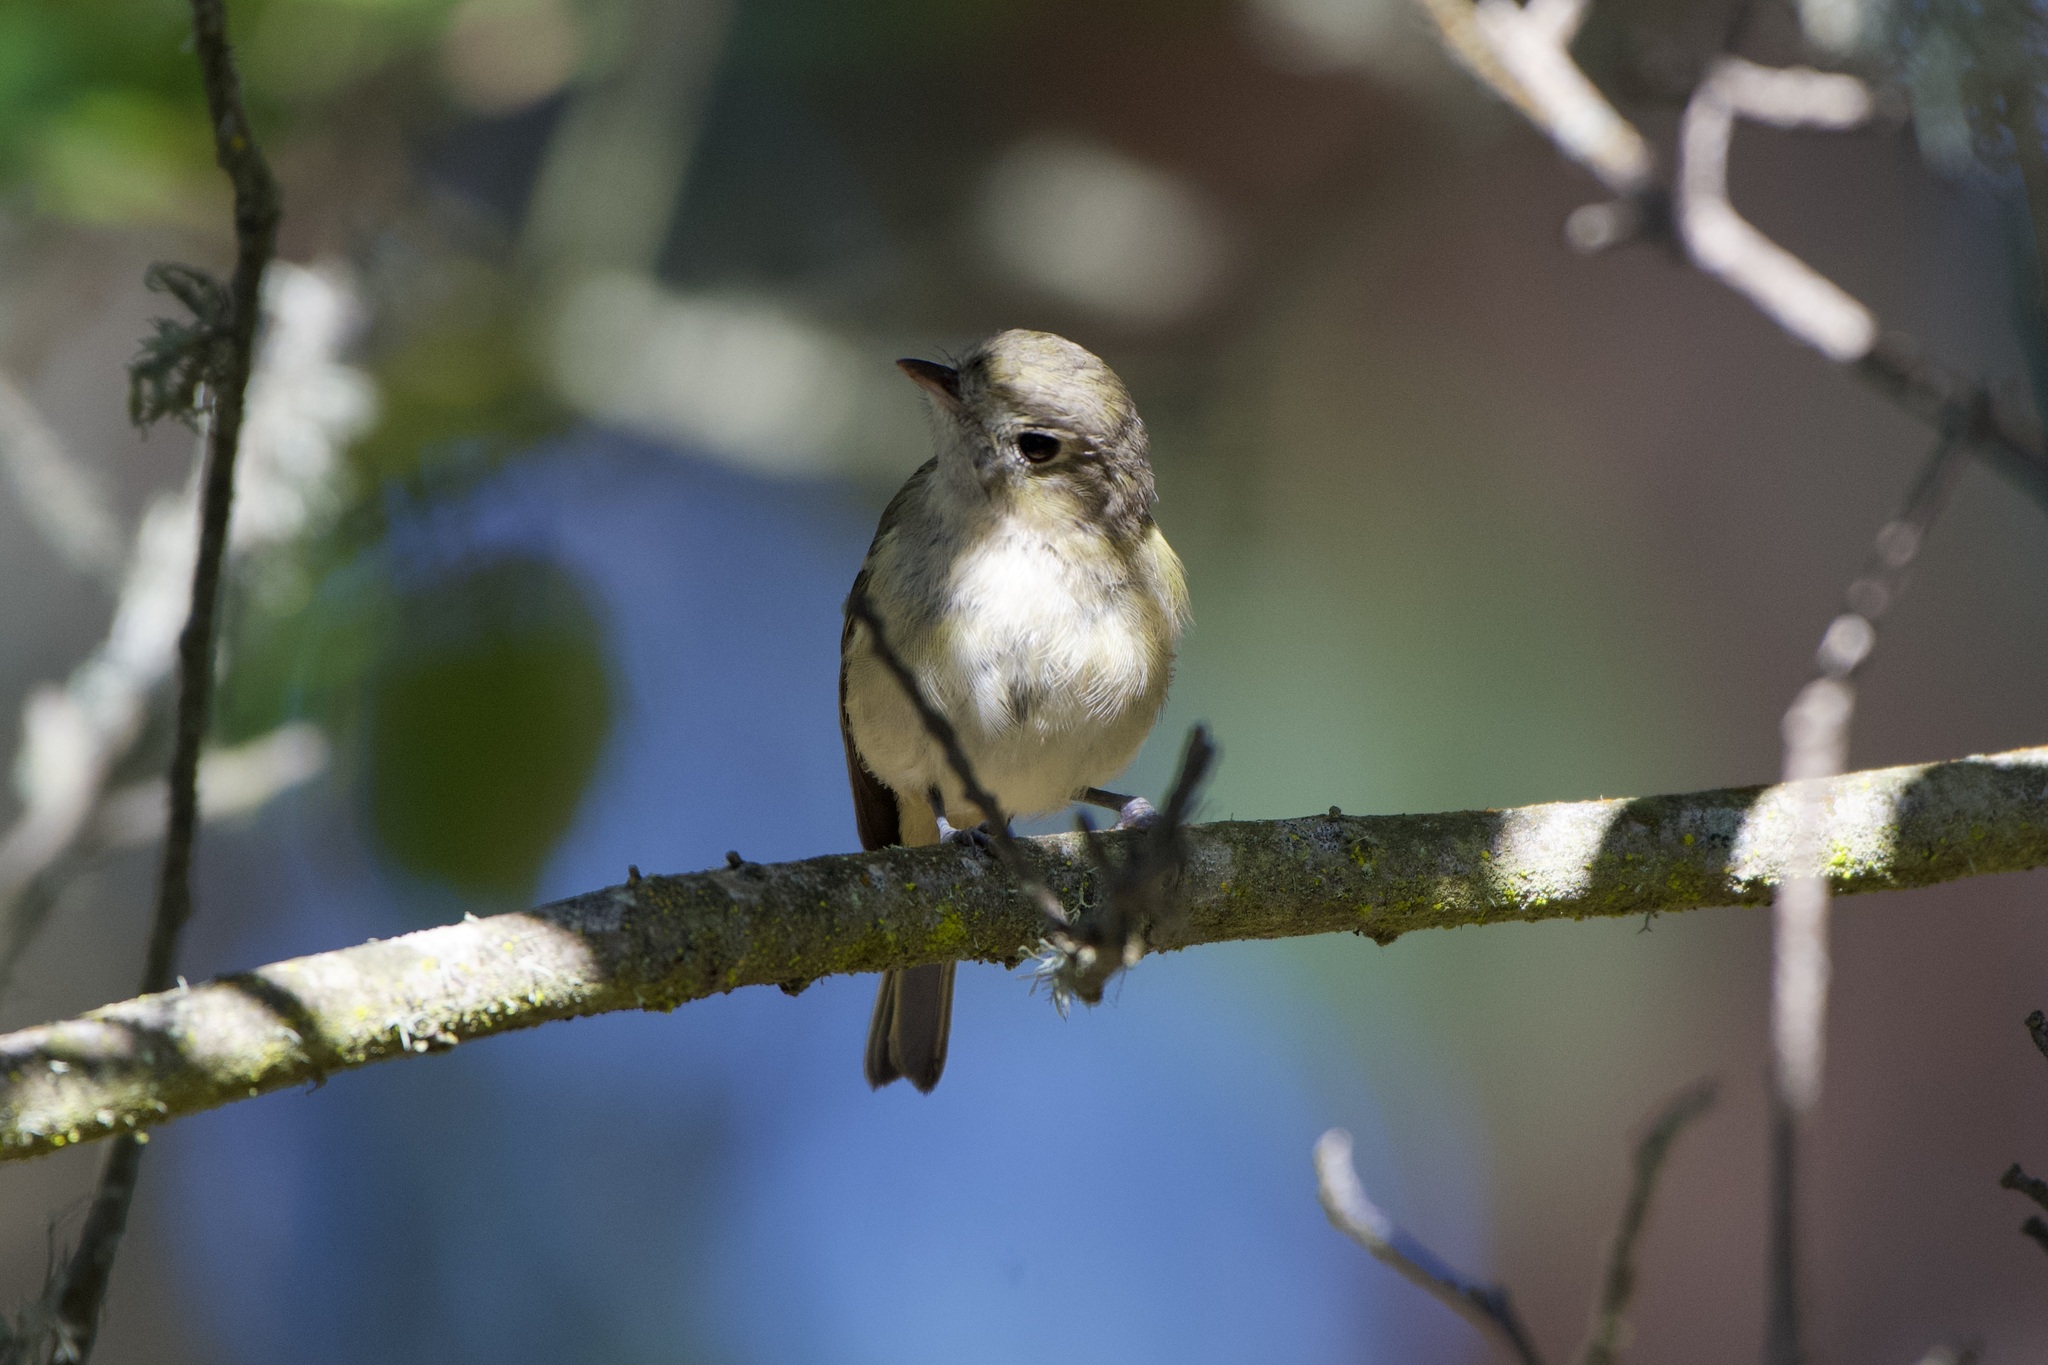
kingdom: Animalia
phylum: Chordata
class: Aves
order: Passeriformes
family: Vireonidae
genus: Vireo
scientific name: Vireo huttoni
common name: Hutton's vireo
